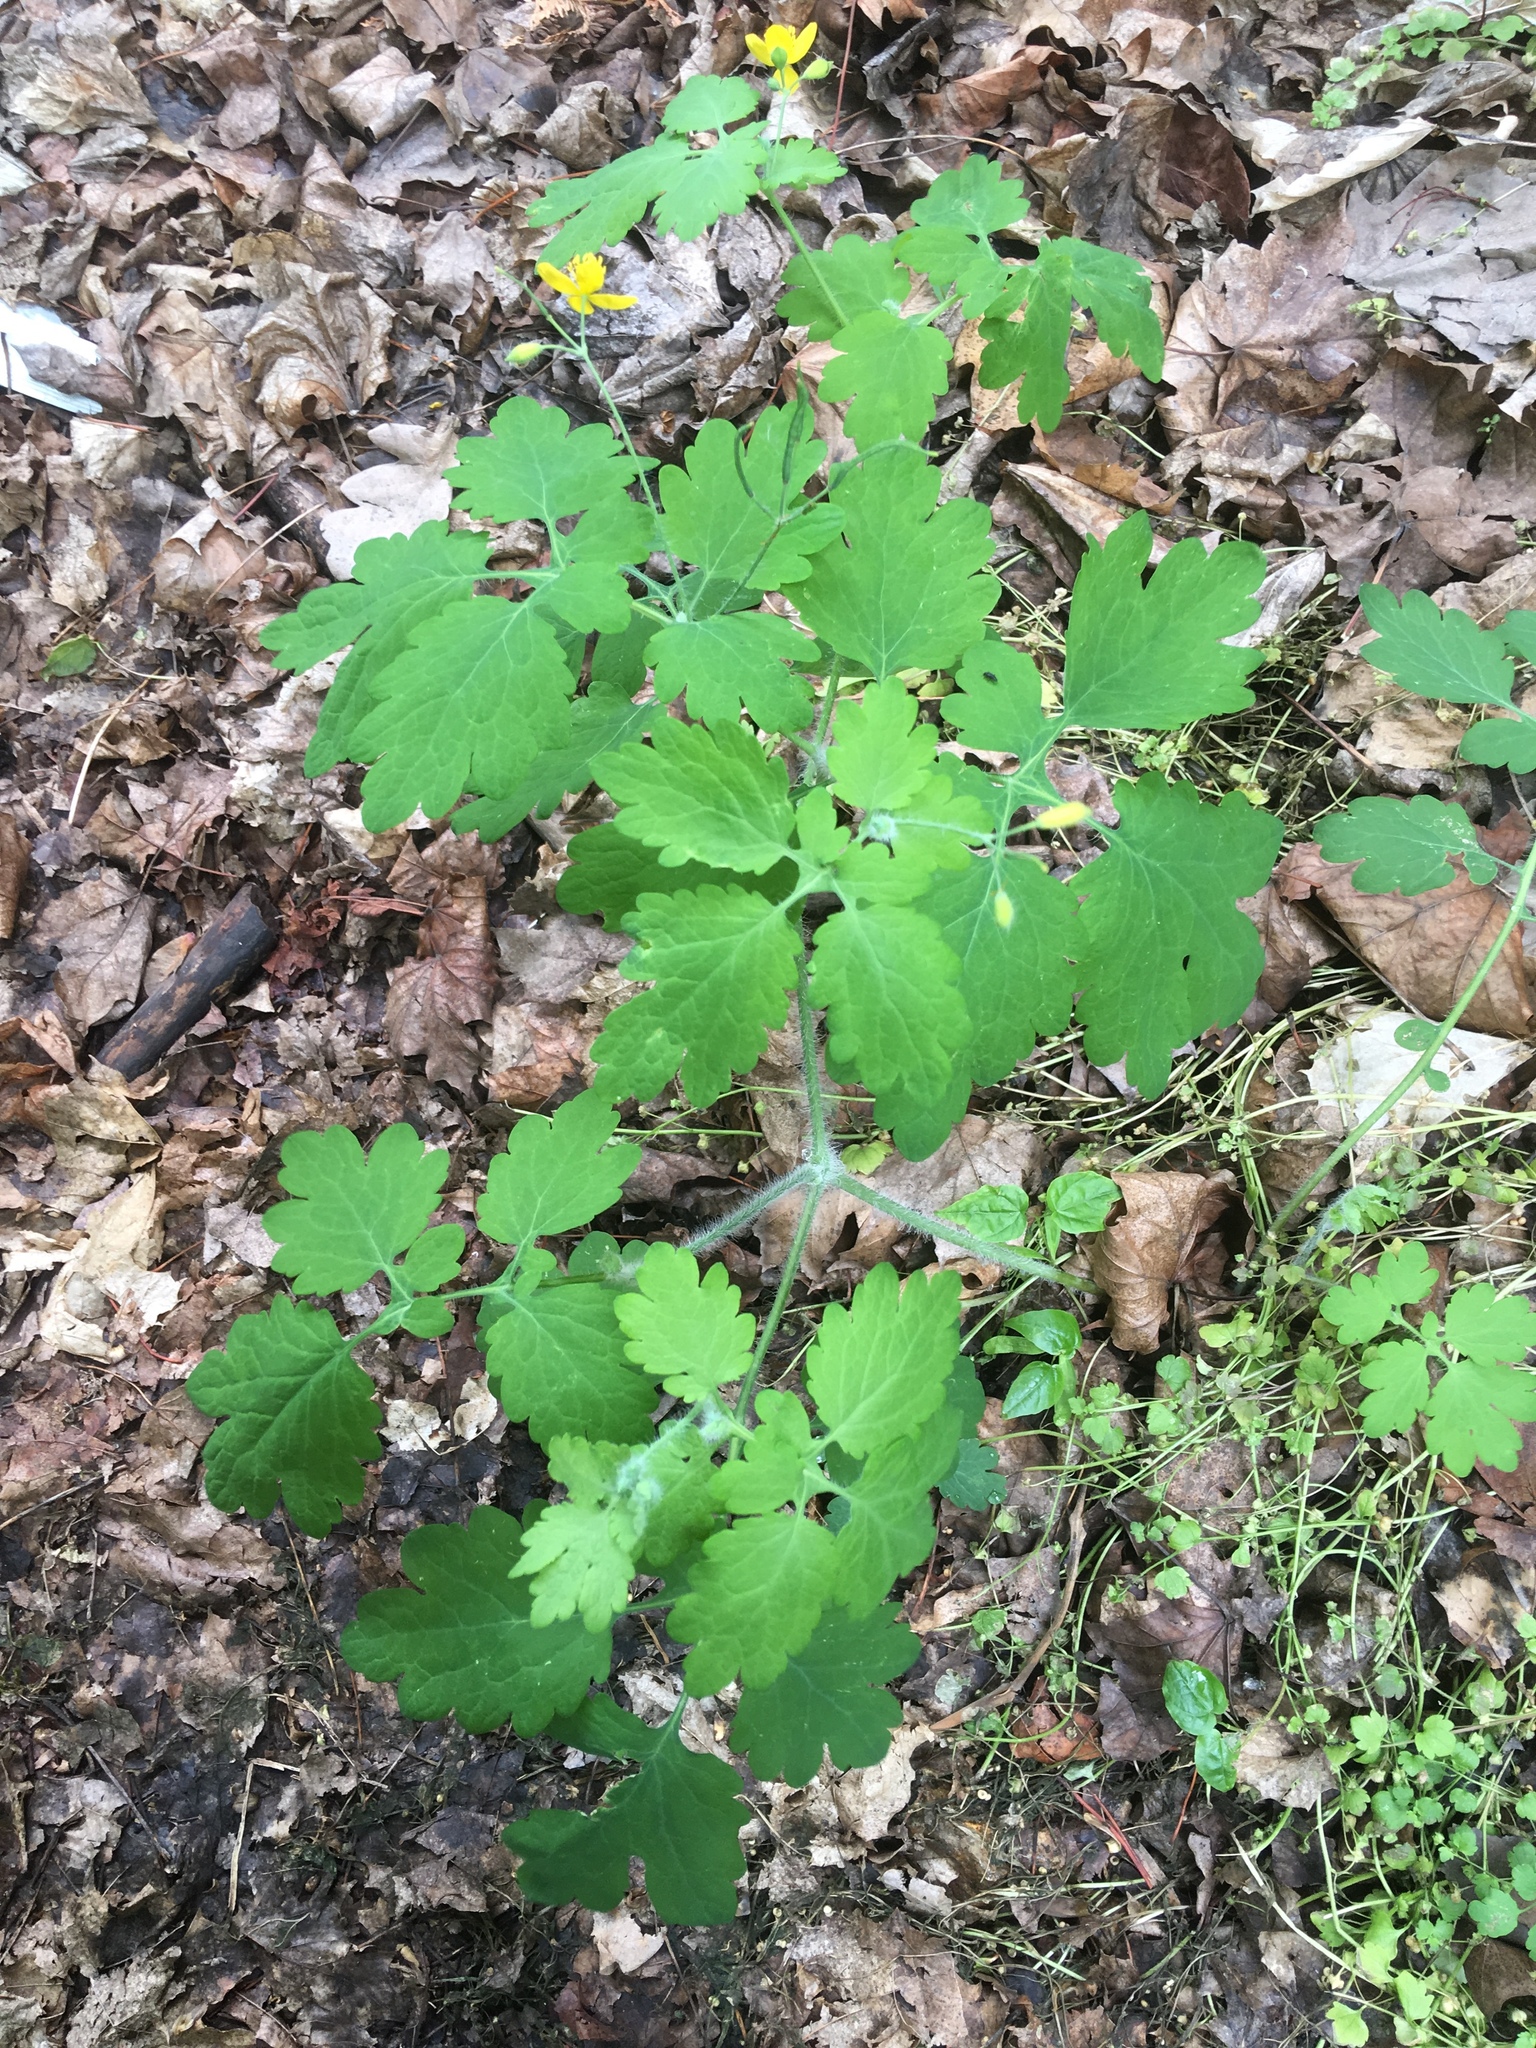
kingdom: Plantae
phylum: Tracheophyta
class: Magnoliopsida
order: Ranunculales
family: Papaveraceae
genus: Chelidonium
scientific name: Chelidonium majus
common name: Greater celandine
